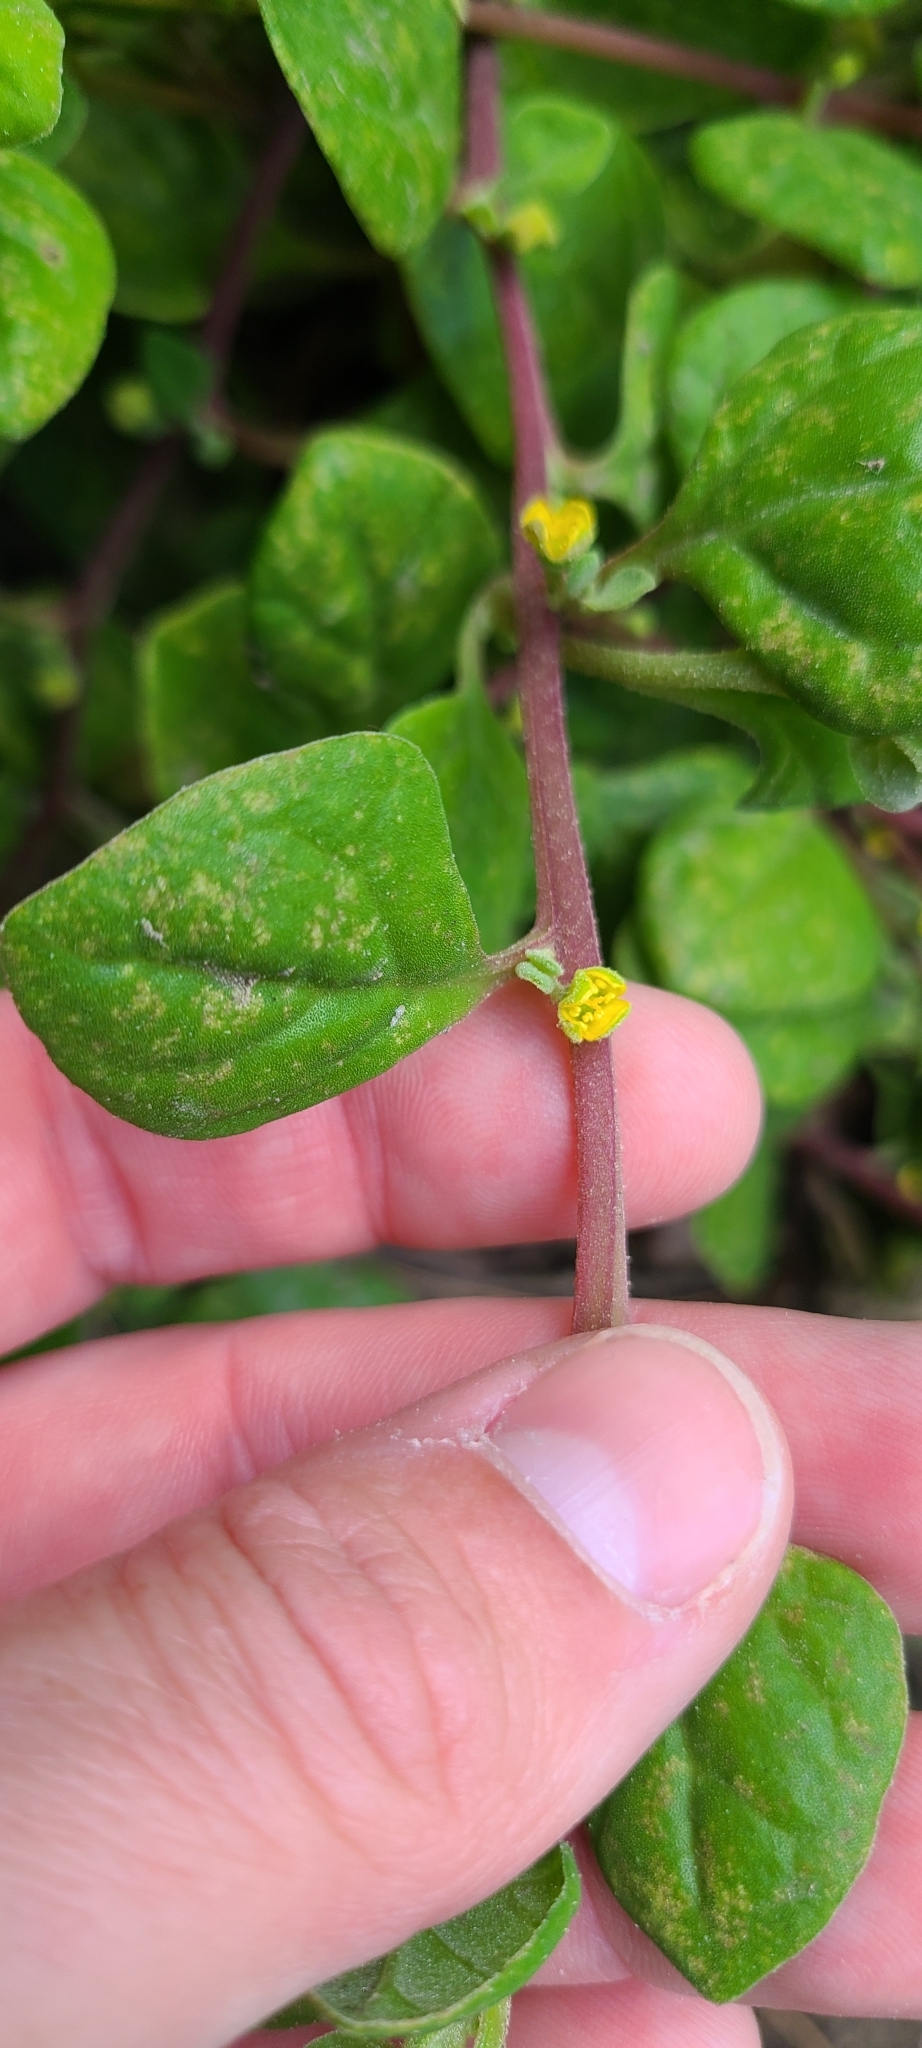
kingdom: Plantae
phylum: Tracheophyta
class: Magnoliopsida
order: Caryophyllales
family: Aizoaceae
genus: Tetragonia
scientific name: Tetragonia implexicoma
